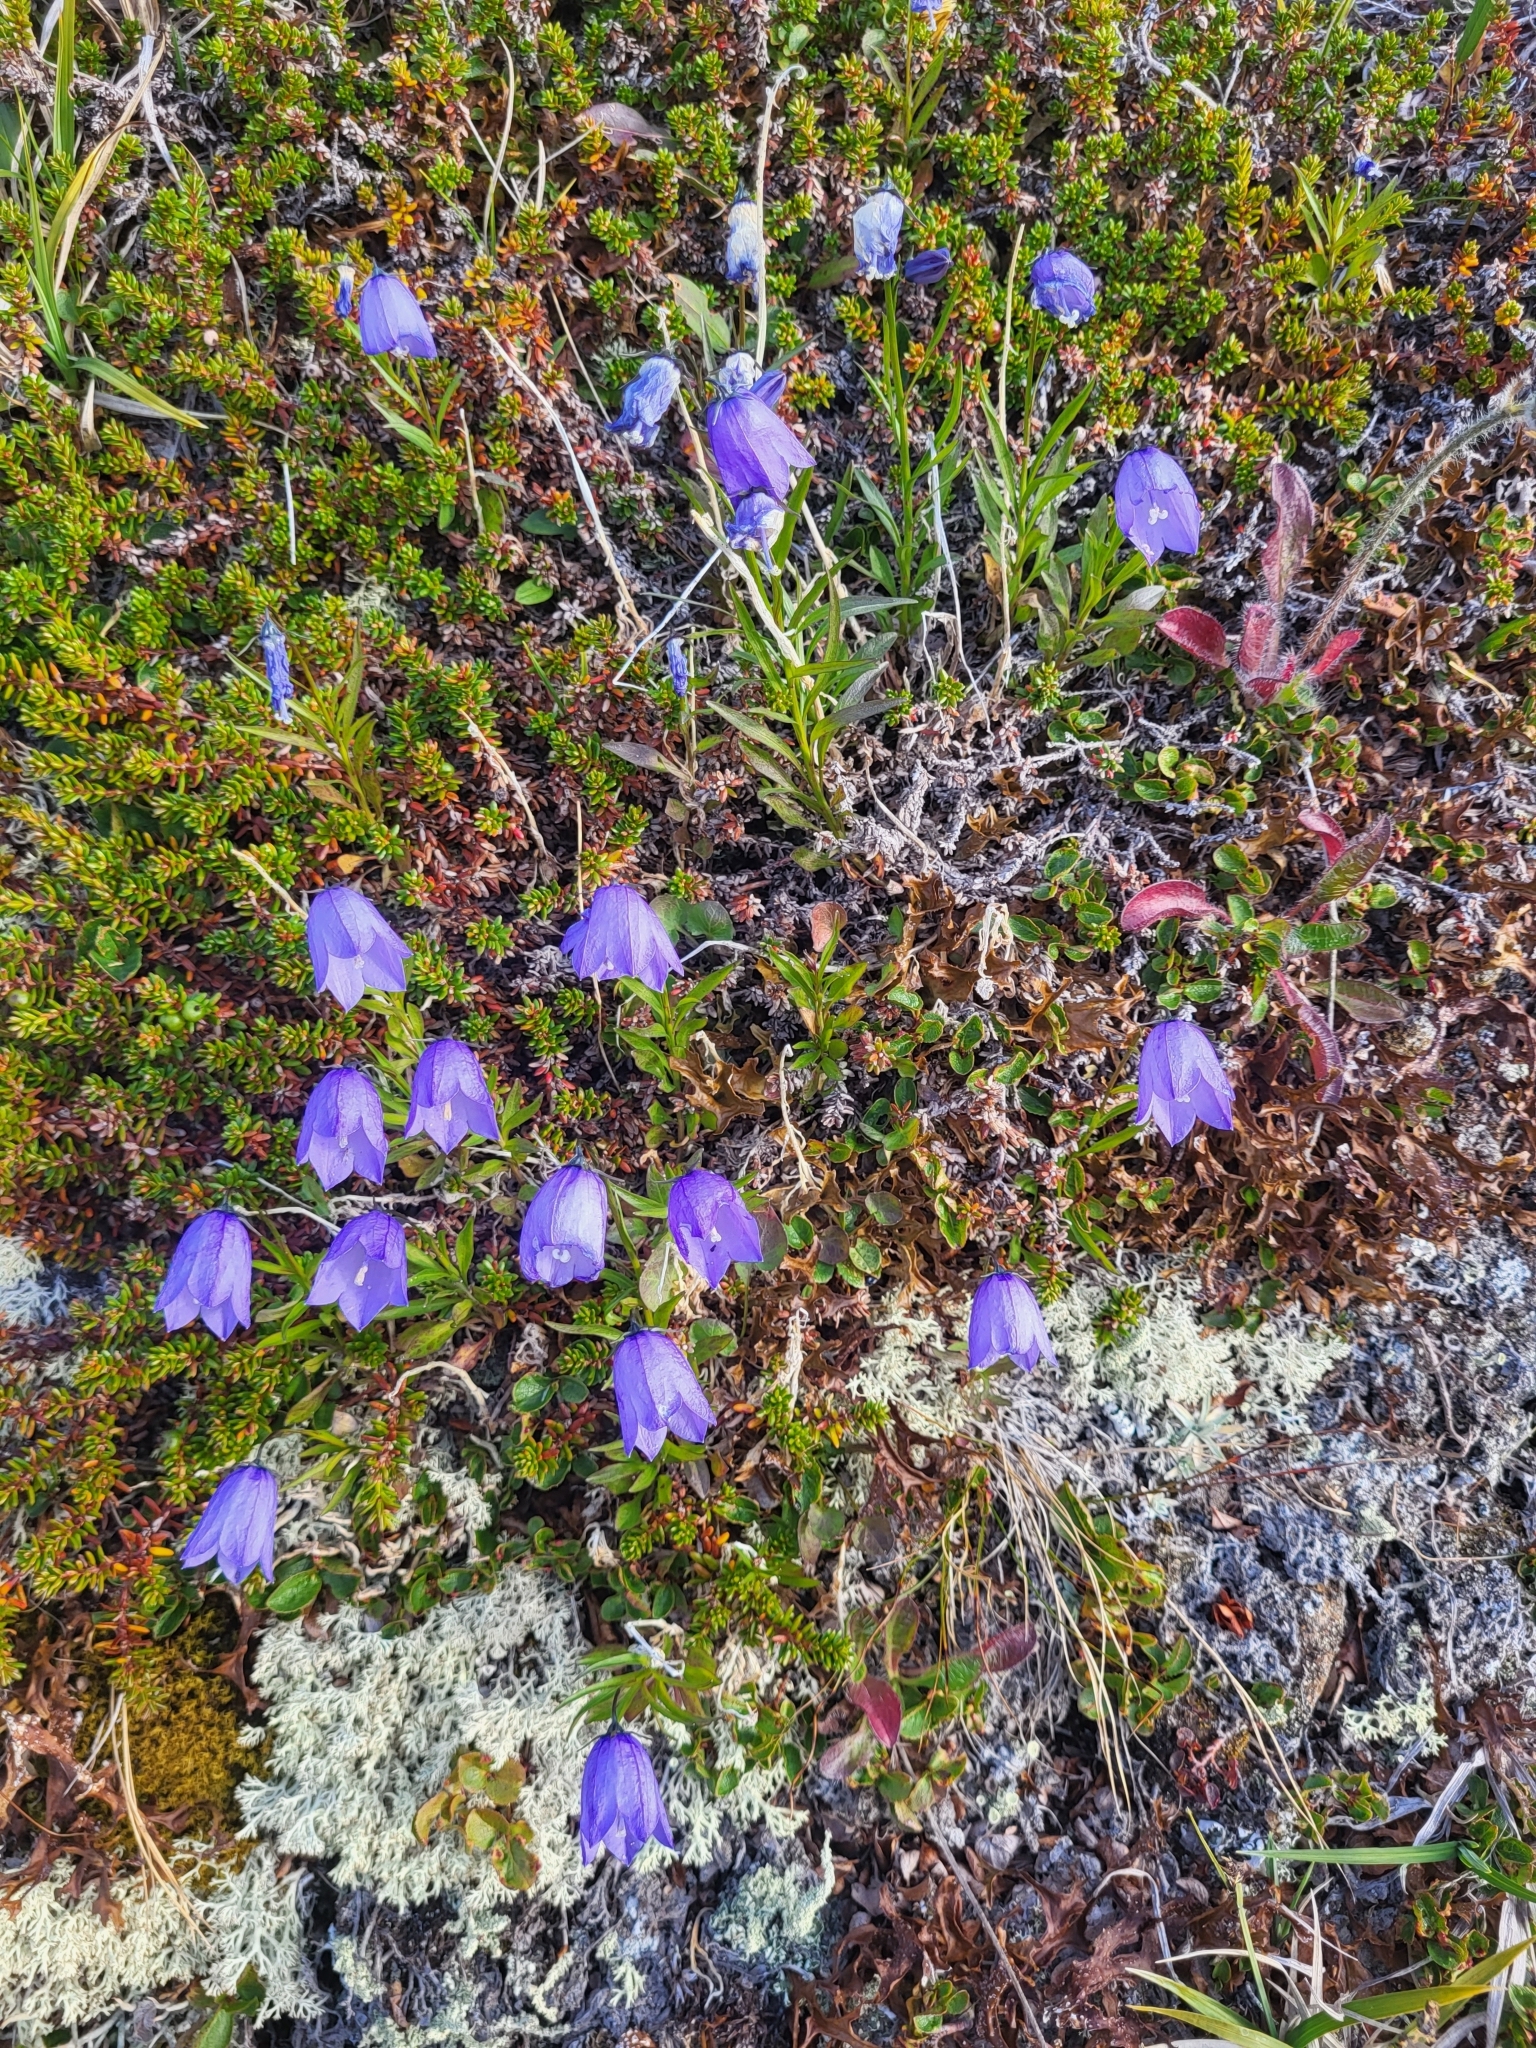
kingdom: Plantae
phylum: Tracheophyta
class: Magnoliopsida
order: Asterales
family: Campanulaceae
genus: Campanula
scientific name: Campanula giesekiana
